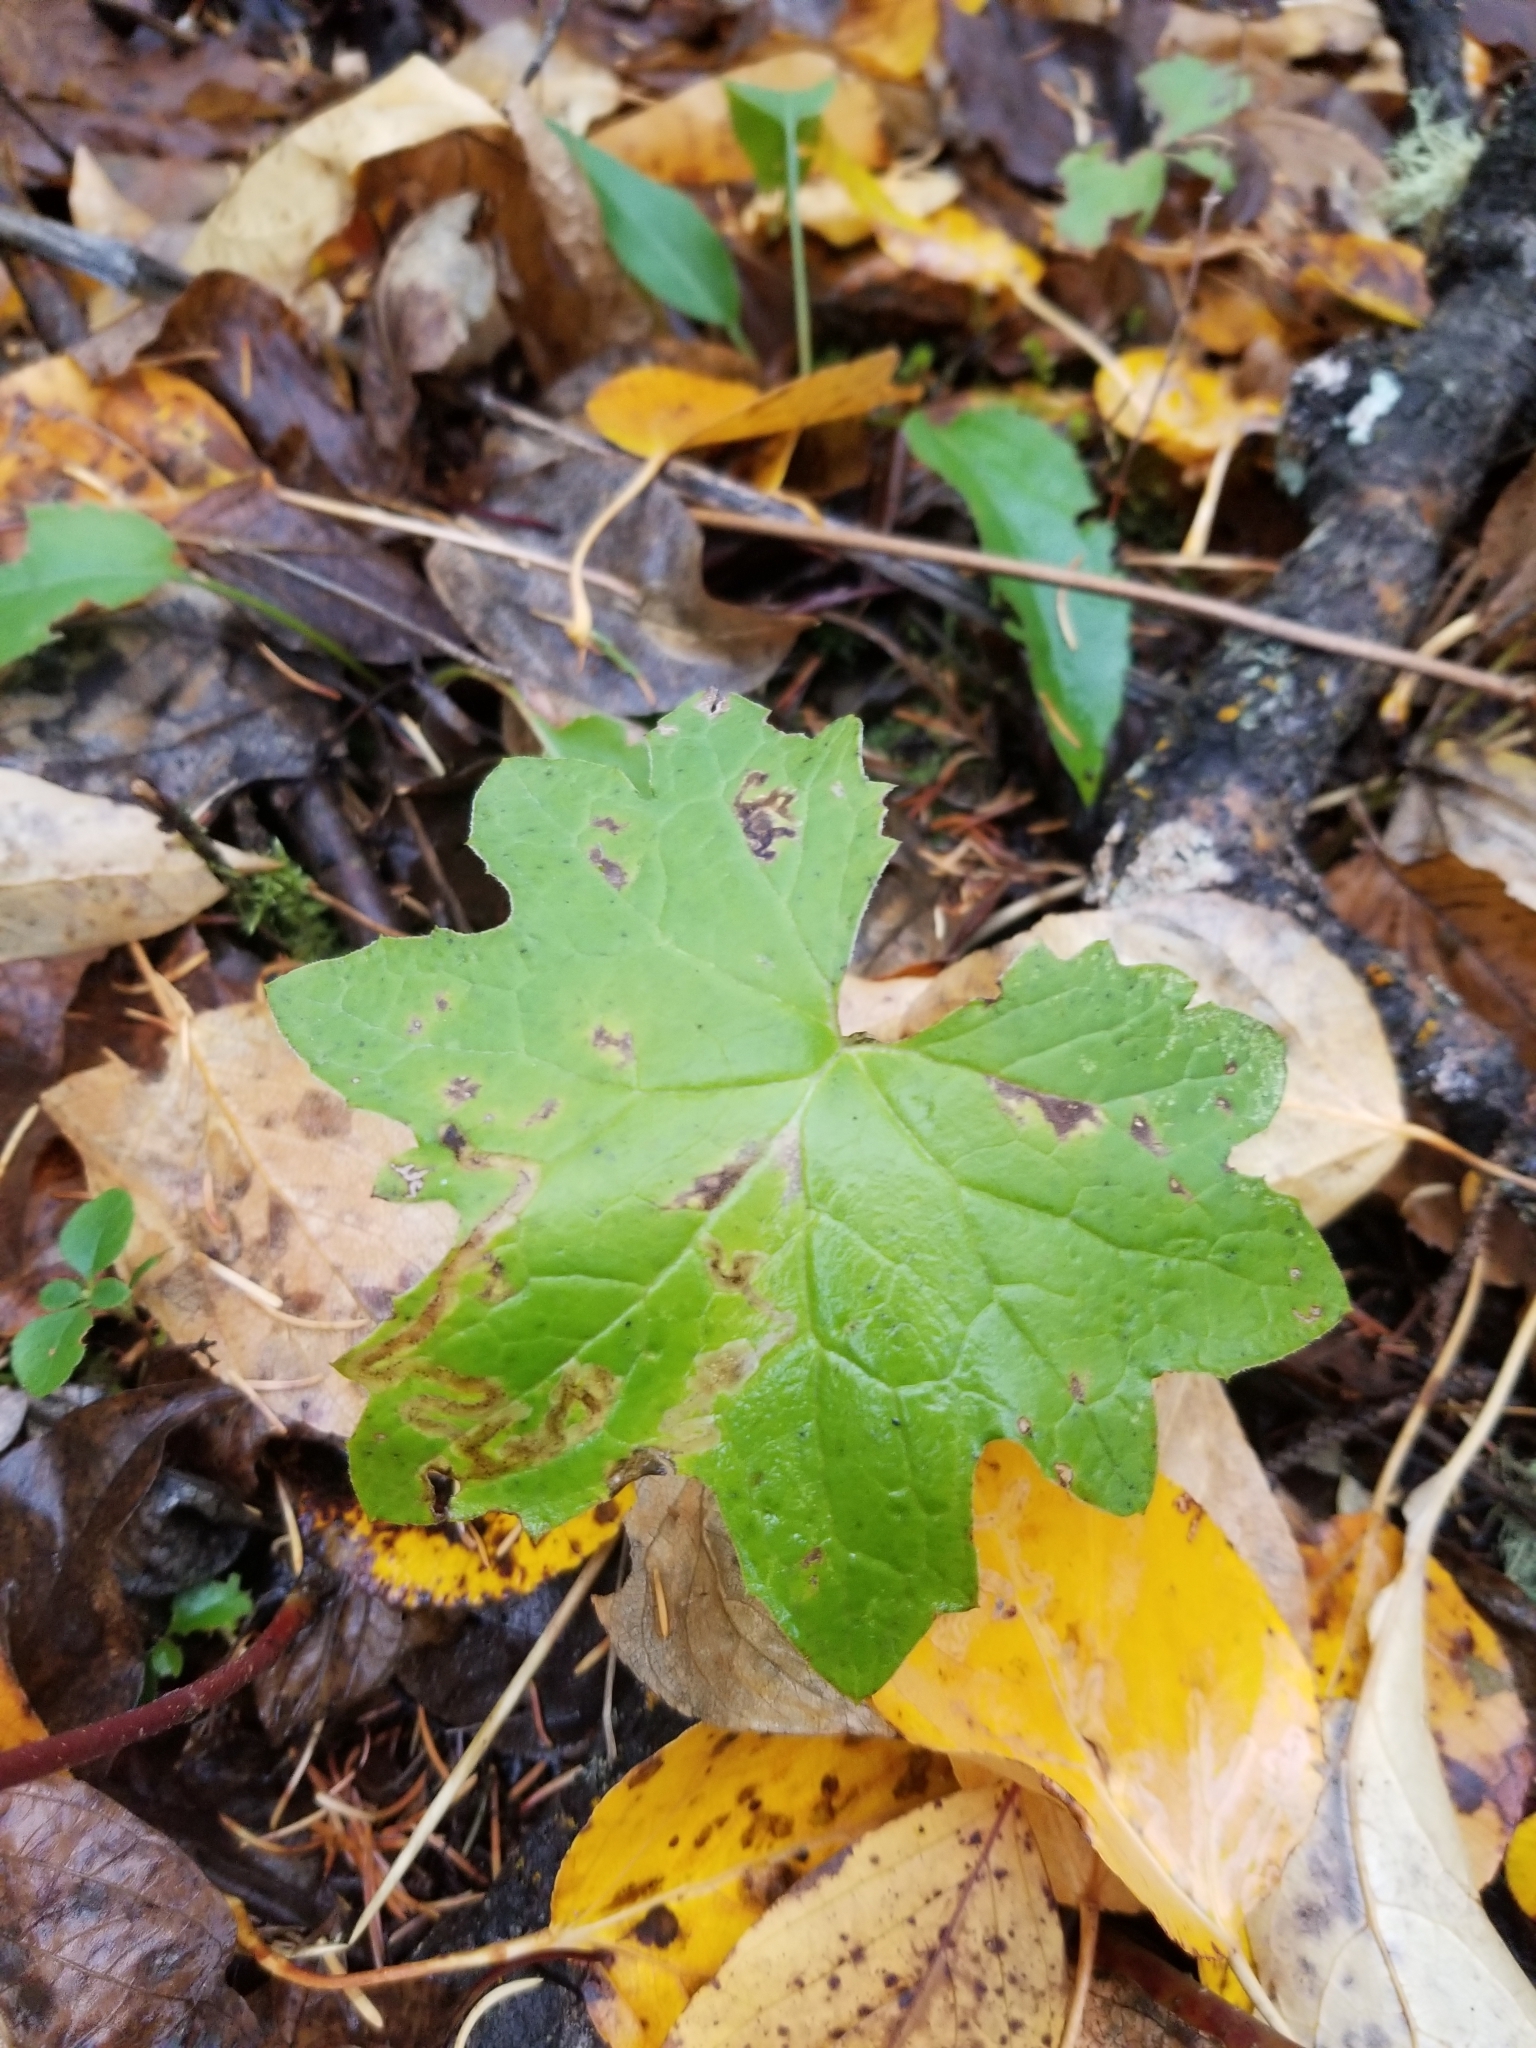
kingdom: Plantae
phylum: Tracheophyta
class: Magnoliopsida
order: Asterales
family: Asteraceae
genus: Petasites
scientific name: Petasites frigidus
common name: Arctic butterbur
